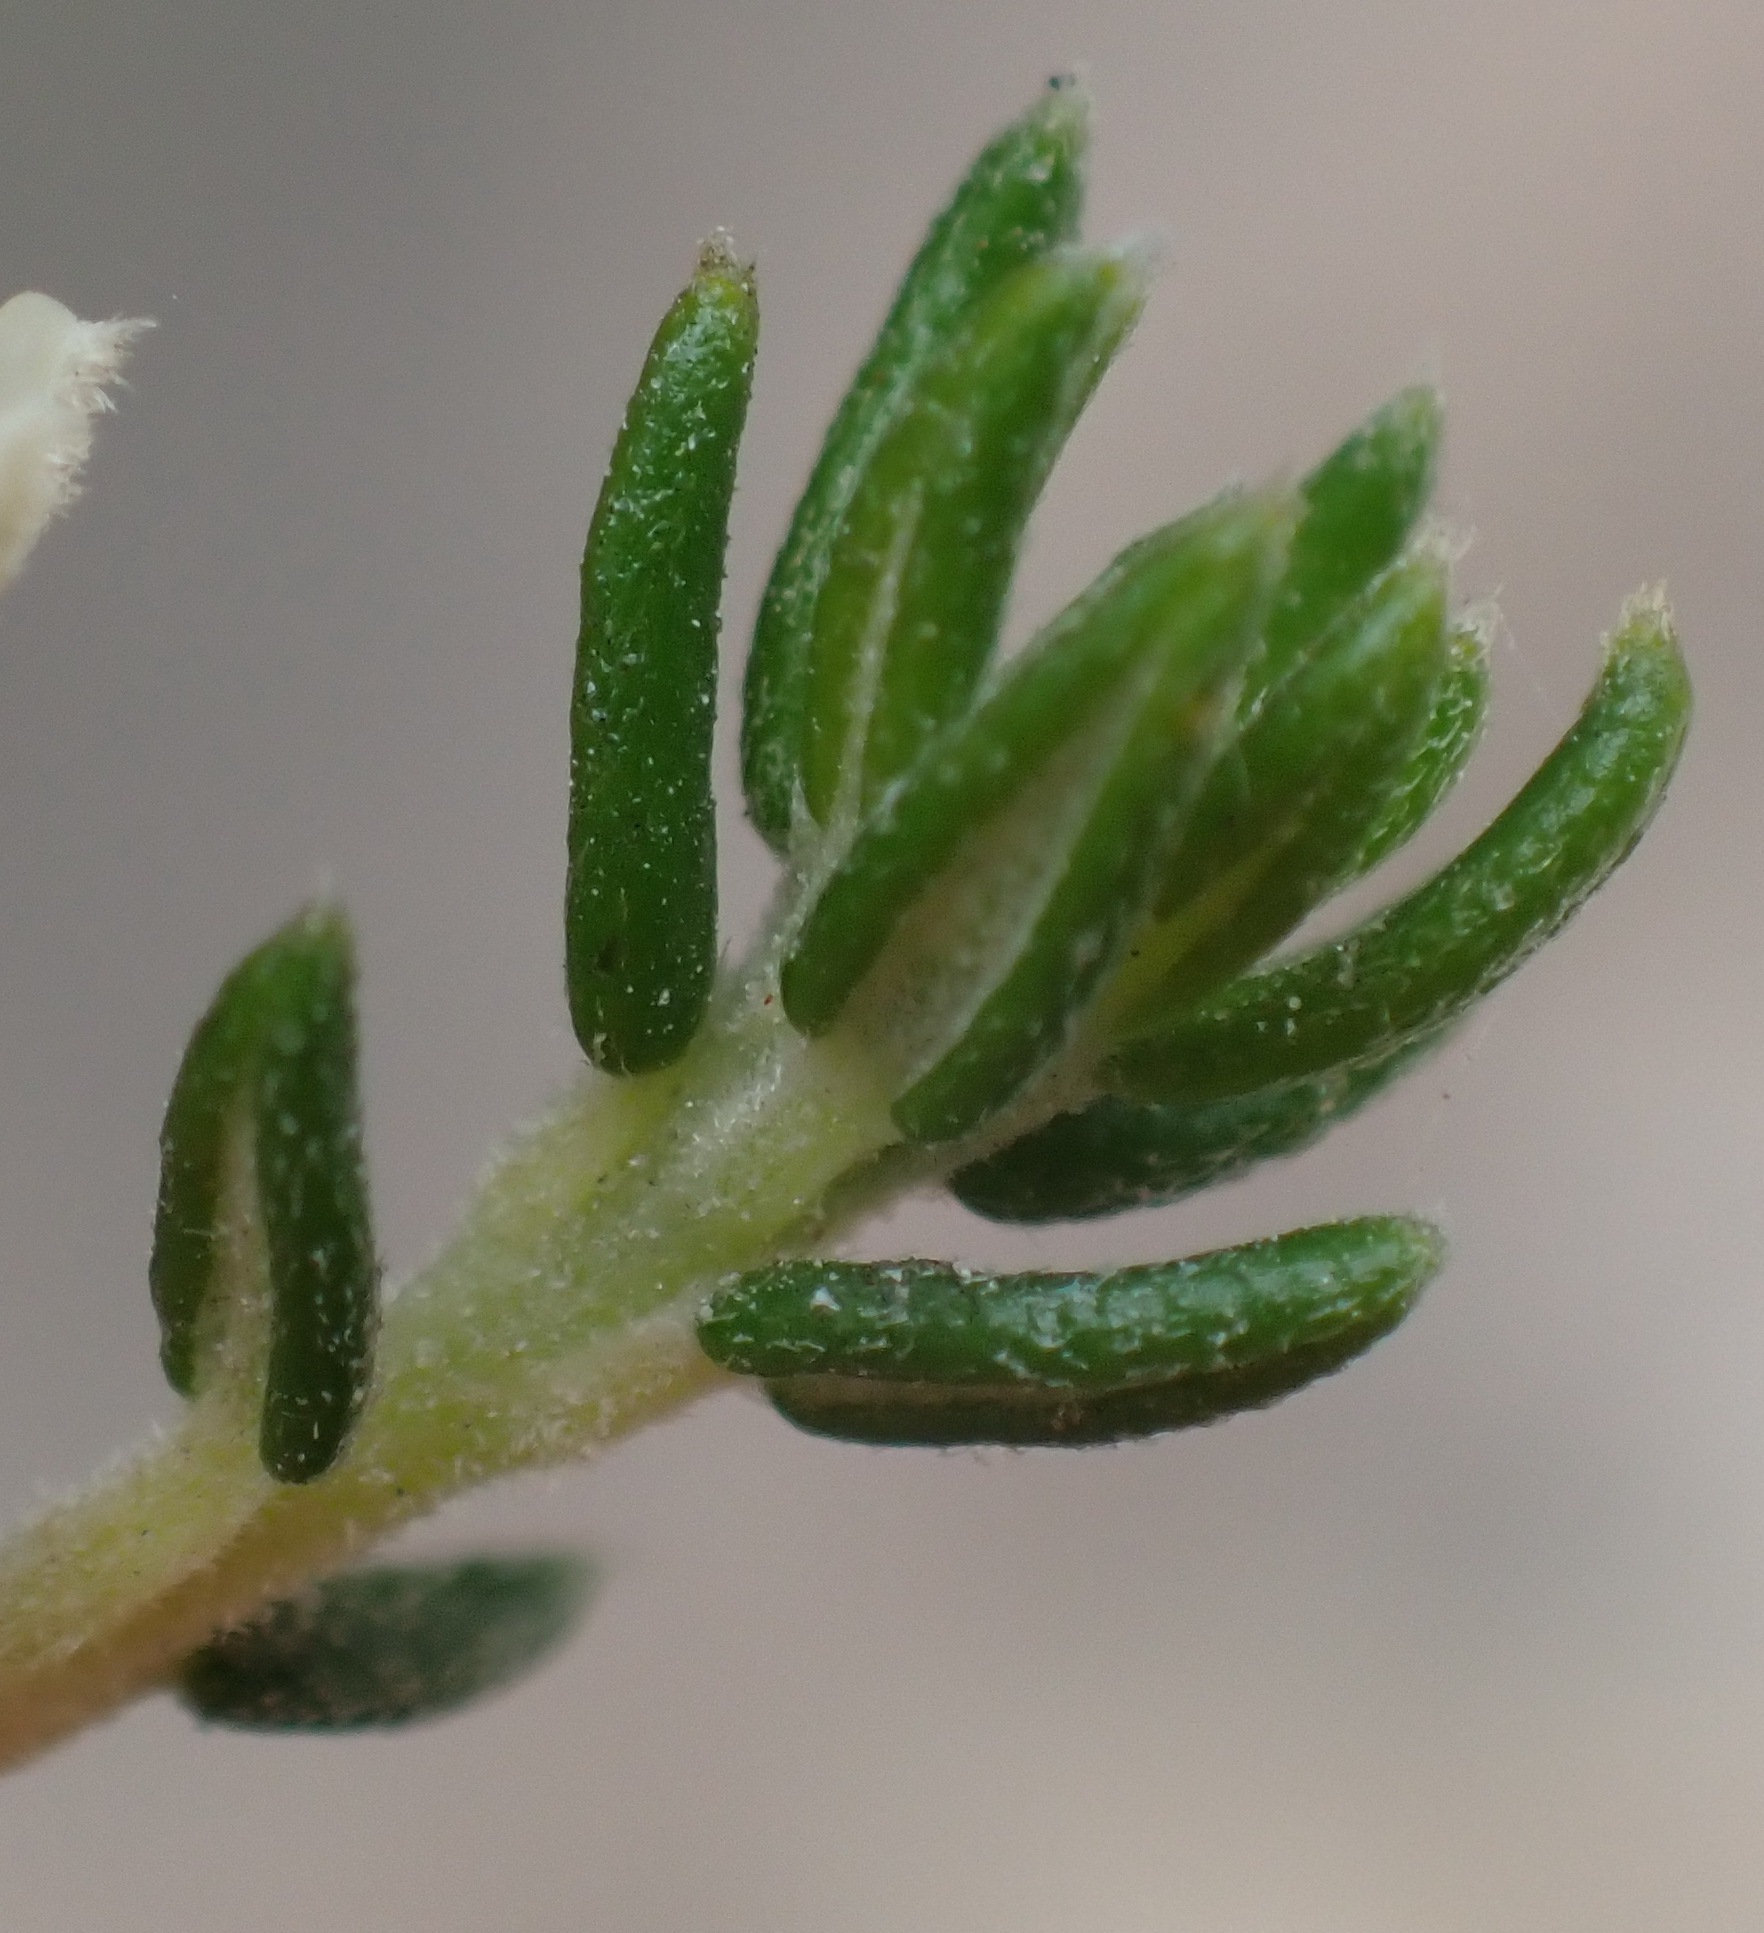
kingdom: Plantae
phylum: Tracheophyta
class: Magnoliopsida
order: Rosales
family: Rhamnaceae
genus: Phylica
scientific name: Phylica axillaris
